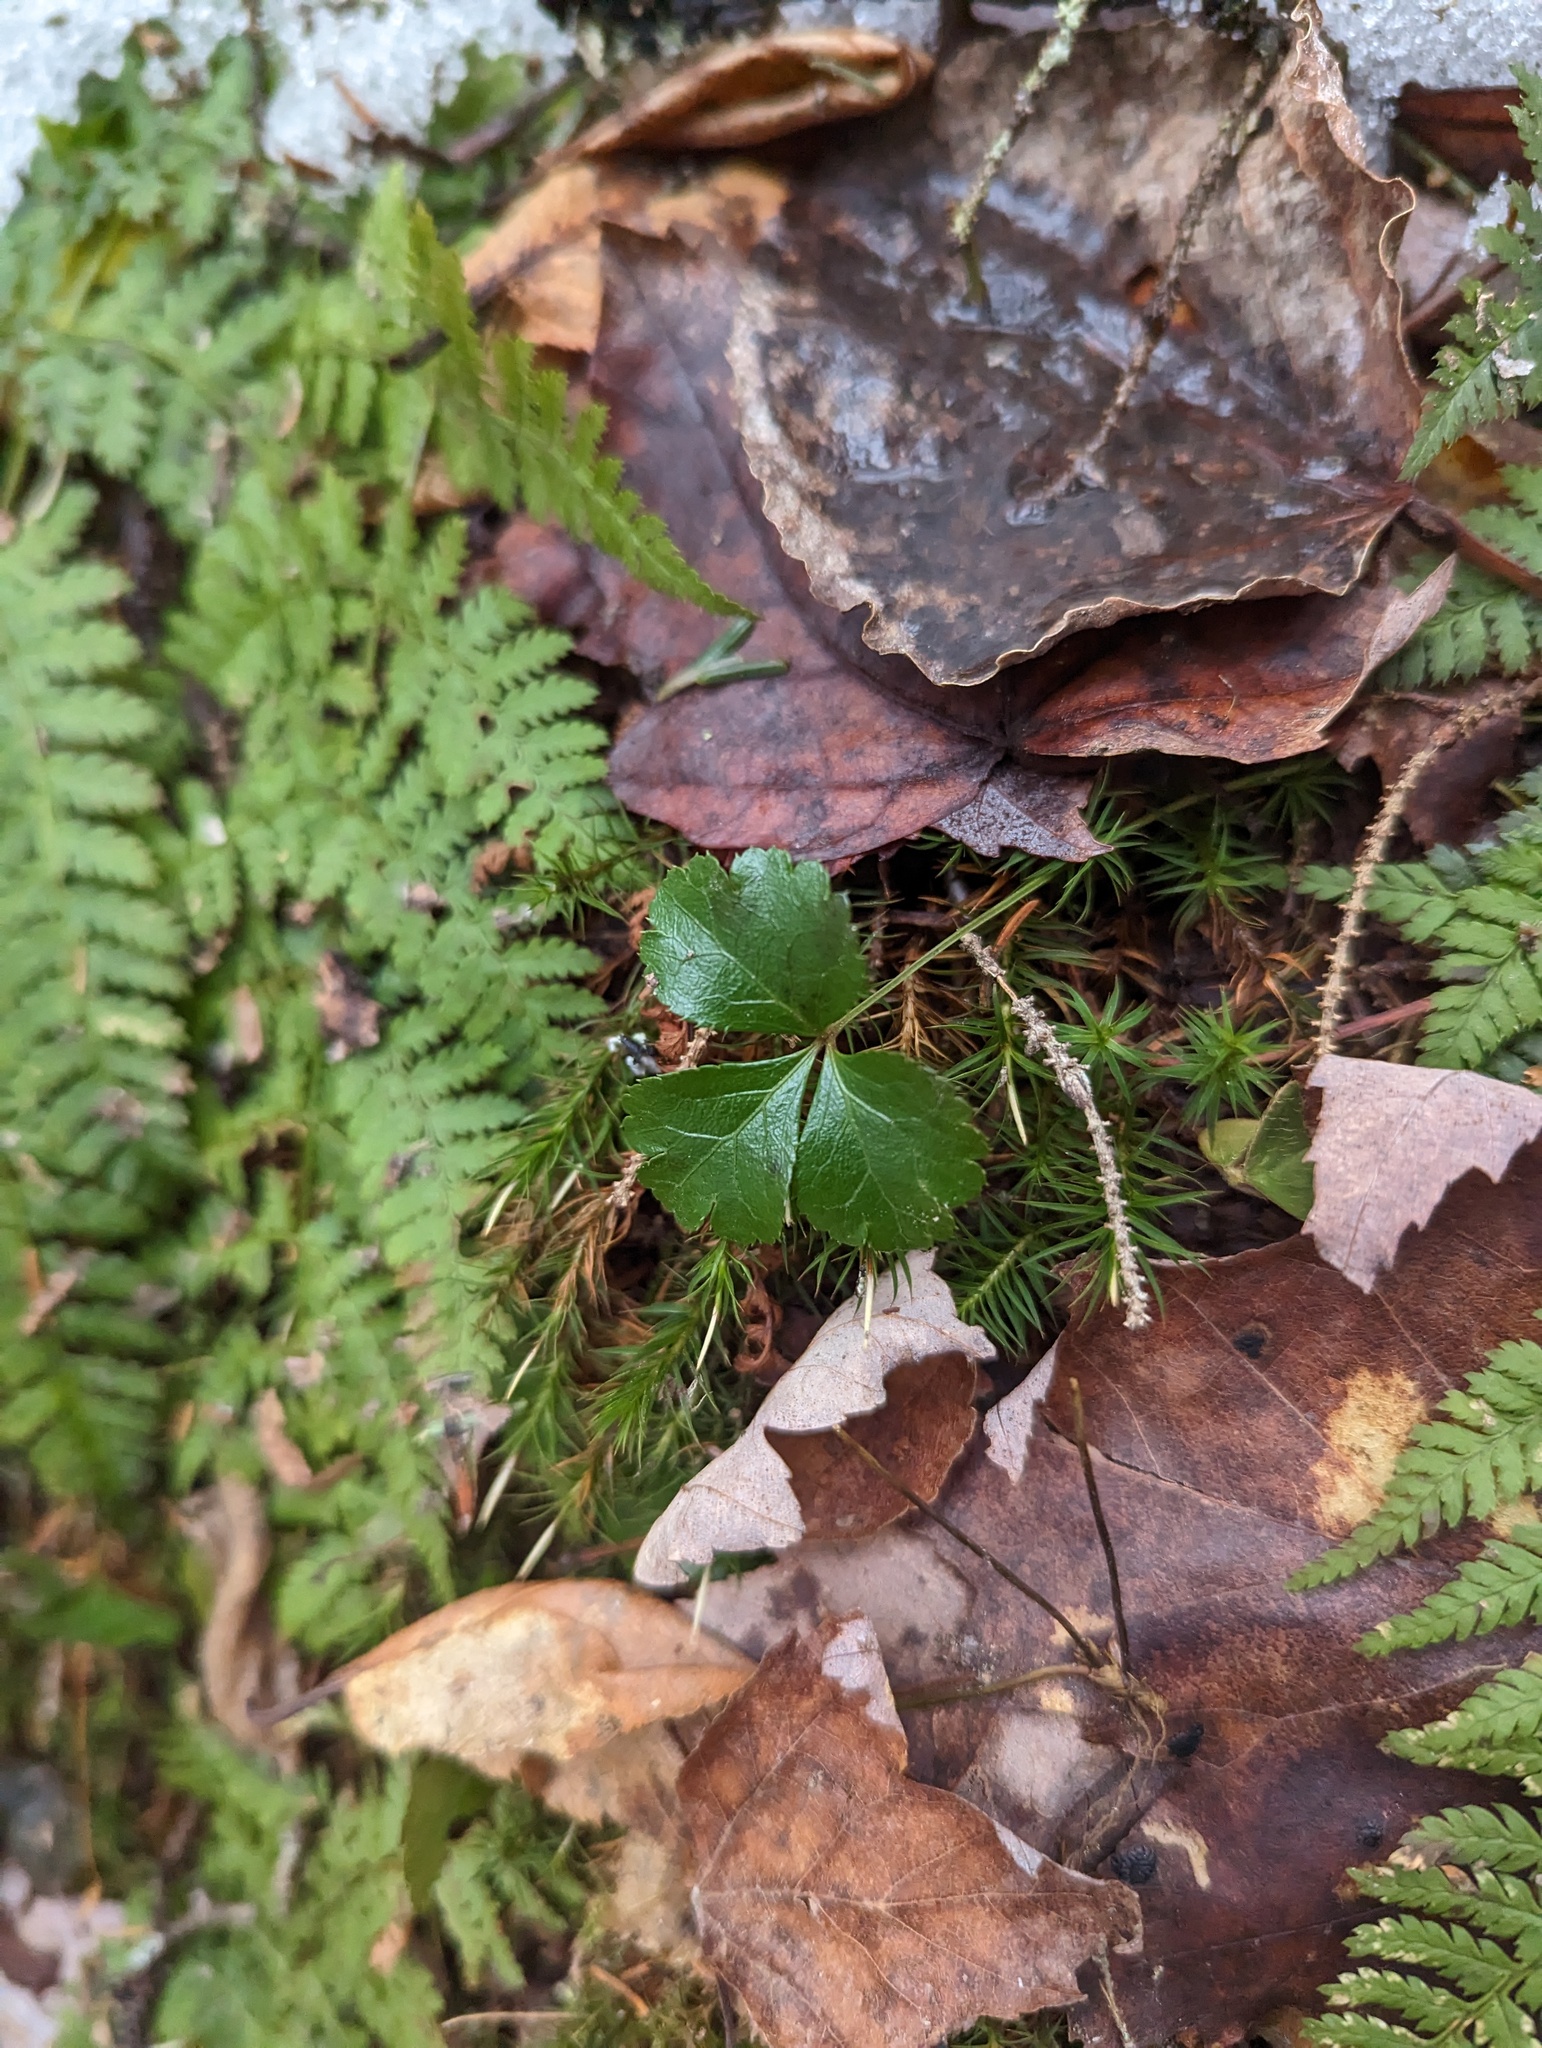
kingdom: Plantae
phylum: Tracheophyta
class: Magnoliopsida
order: Ranunculales
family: Ranunculaceae
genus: Coptis
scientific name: Coptis trifolia
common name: Canker-root
